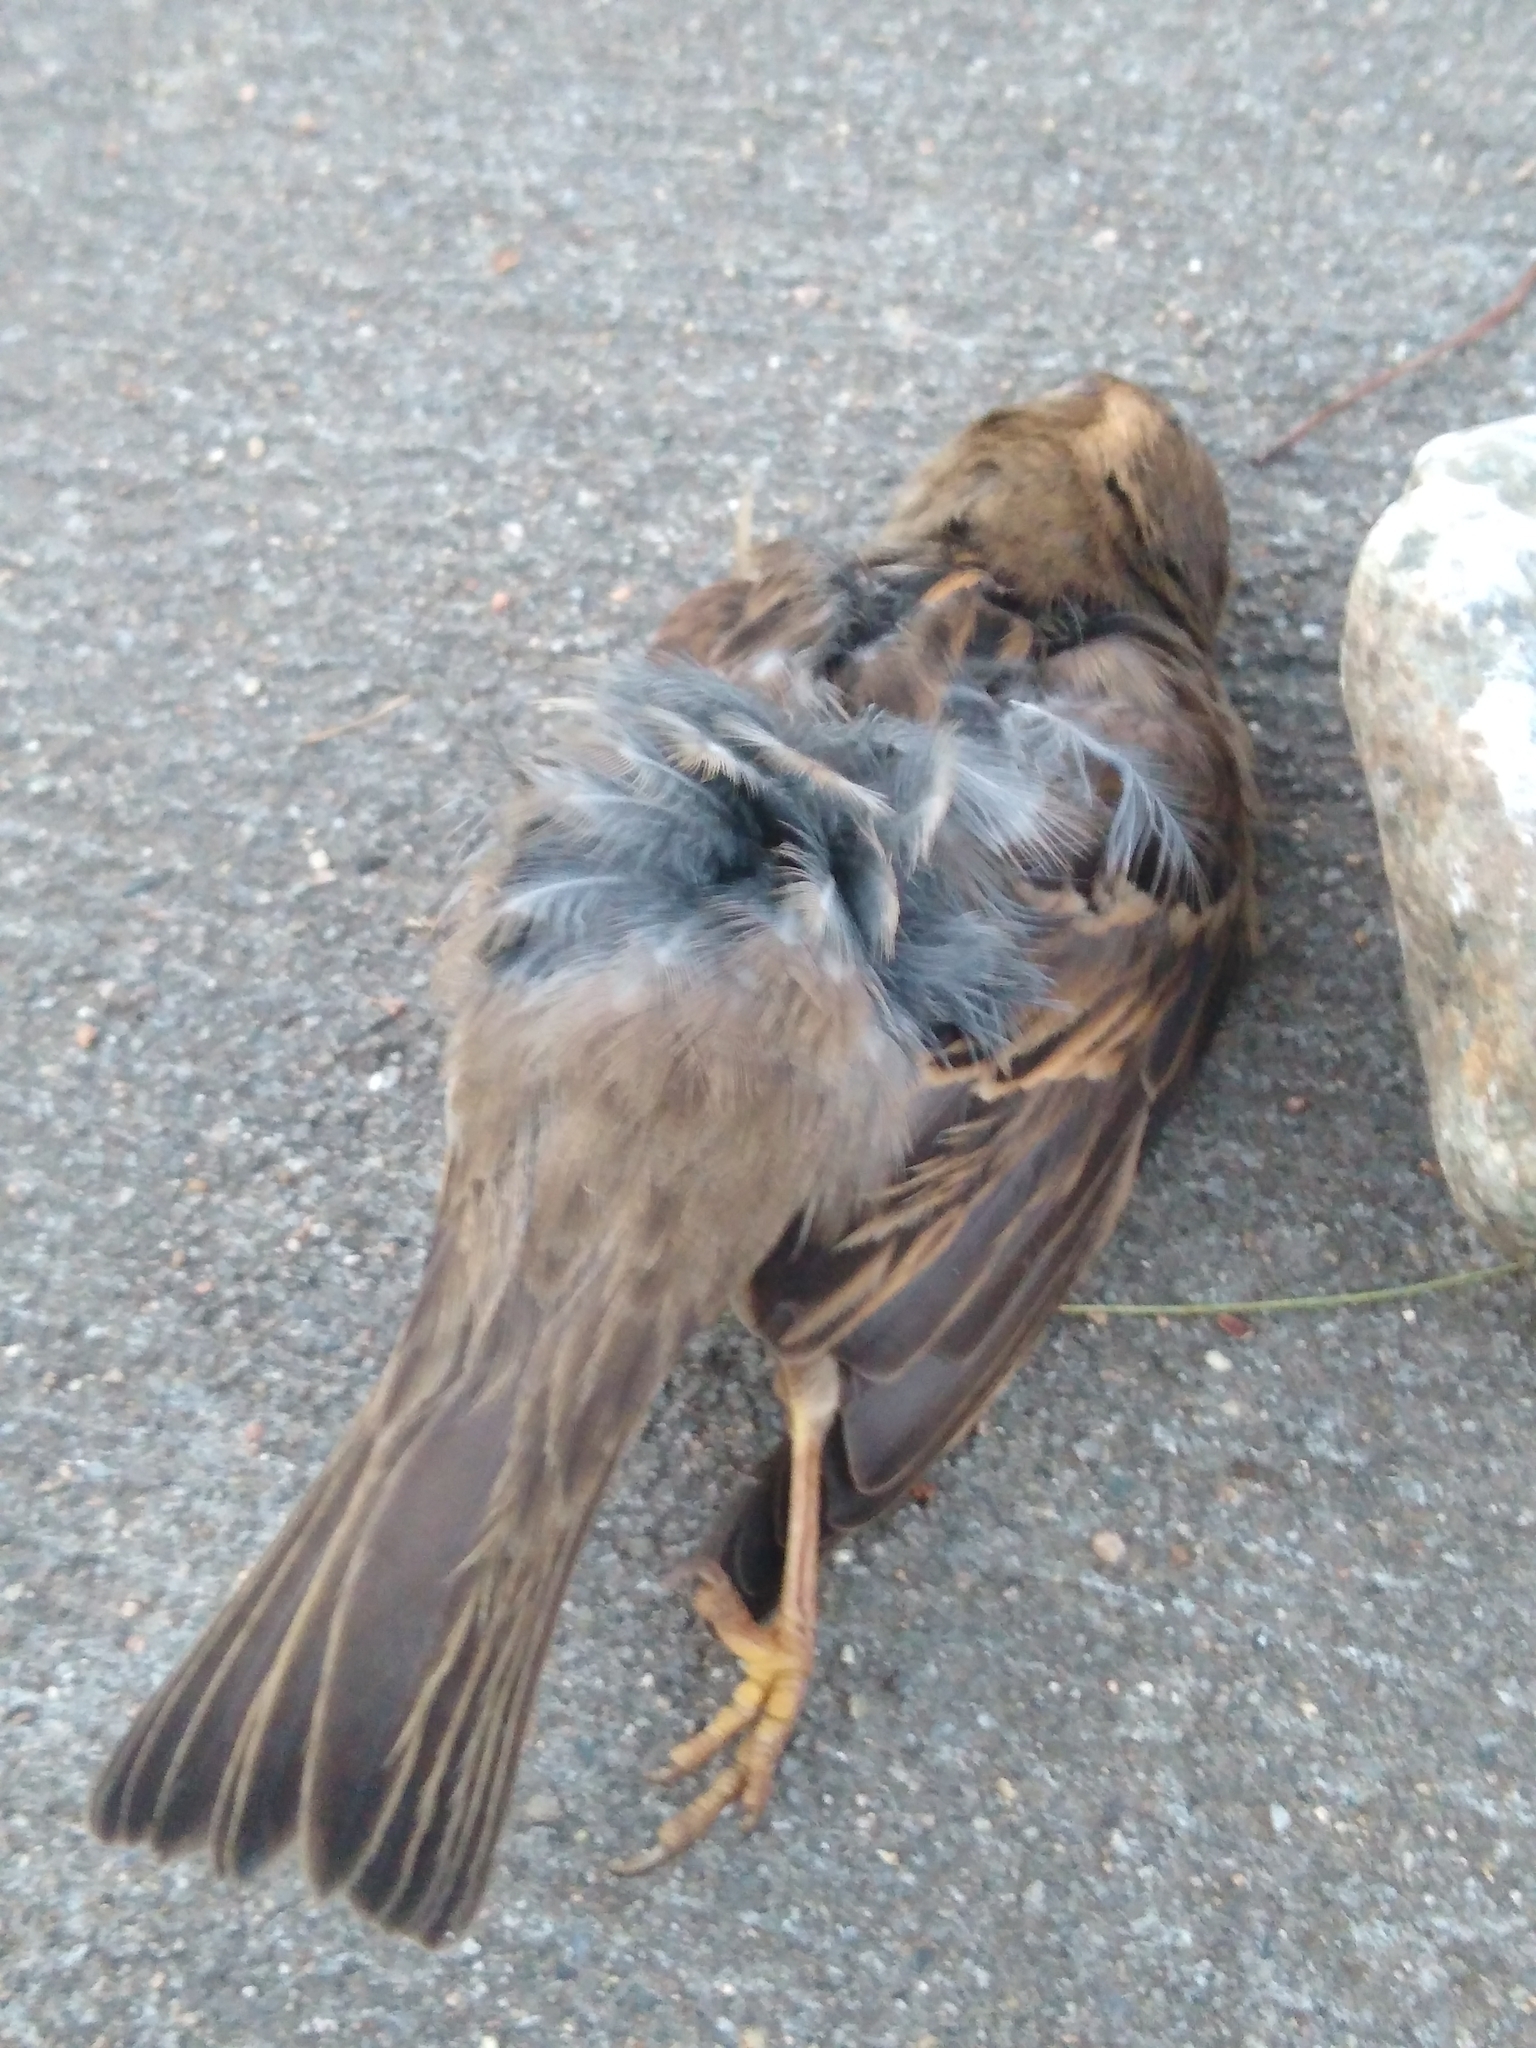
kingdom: Animalia
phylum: Chordata
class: Aves
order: Passeriformes
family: Passeridae
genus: Passer
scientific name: Passer domesticus
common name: House sparrow
